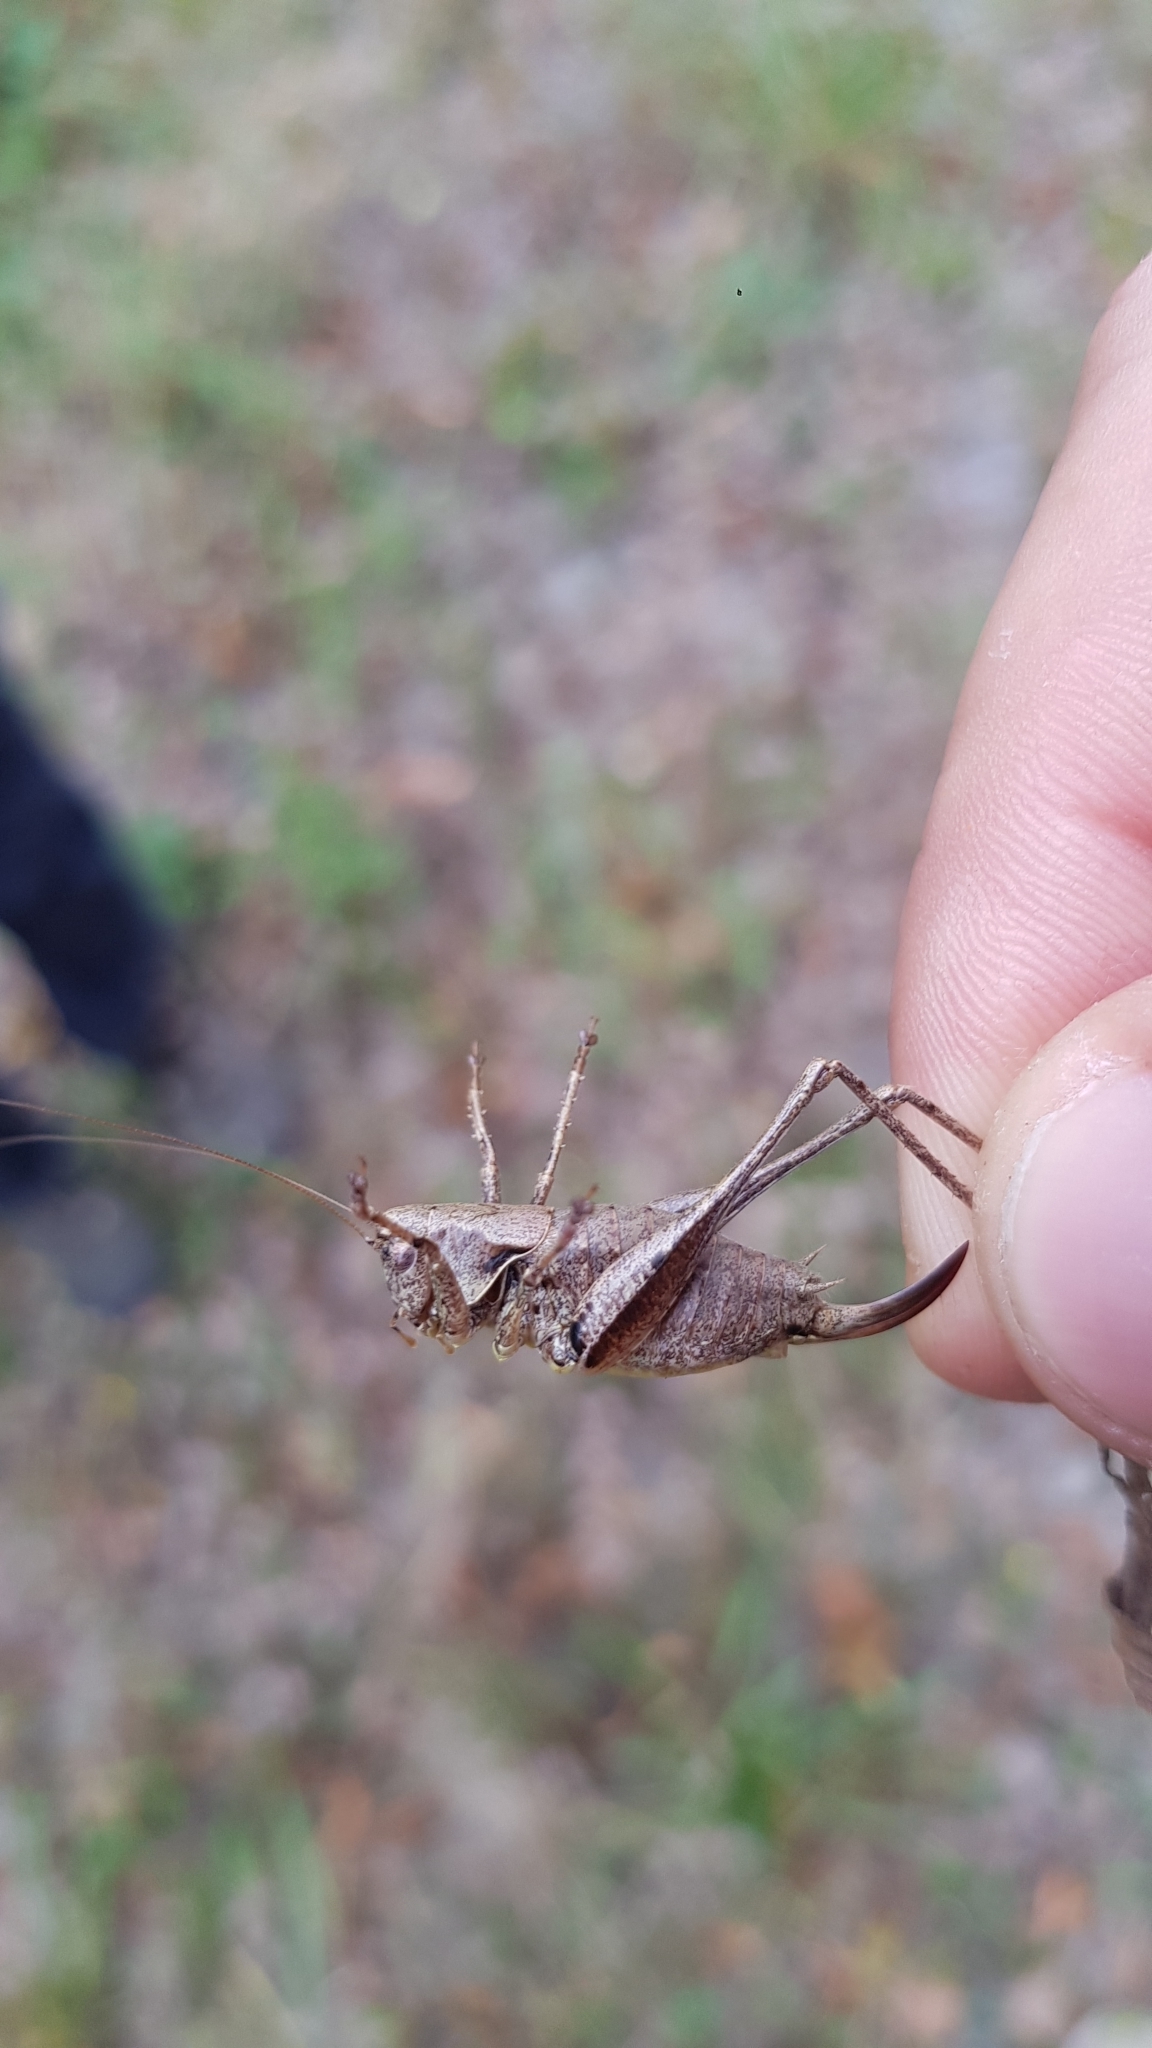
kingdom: Animalia
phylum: Arthropoda
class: Insecta
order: Orthoptera
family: Tettigoniidae
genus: Pholidoptera
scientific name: Pholidoptera griseoaptera
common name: Dark bush-cricket
